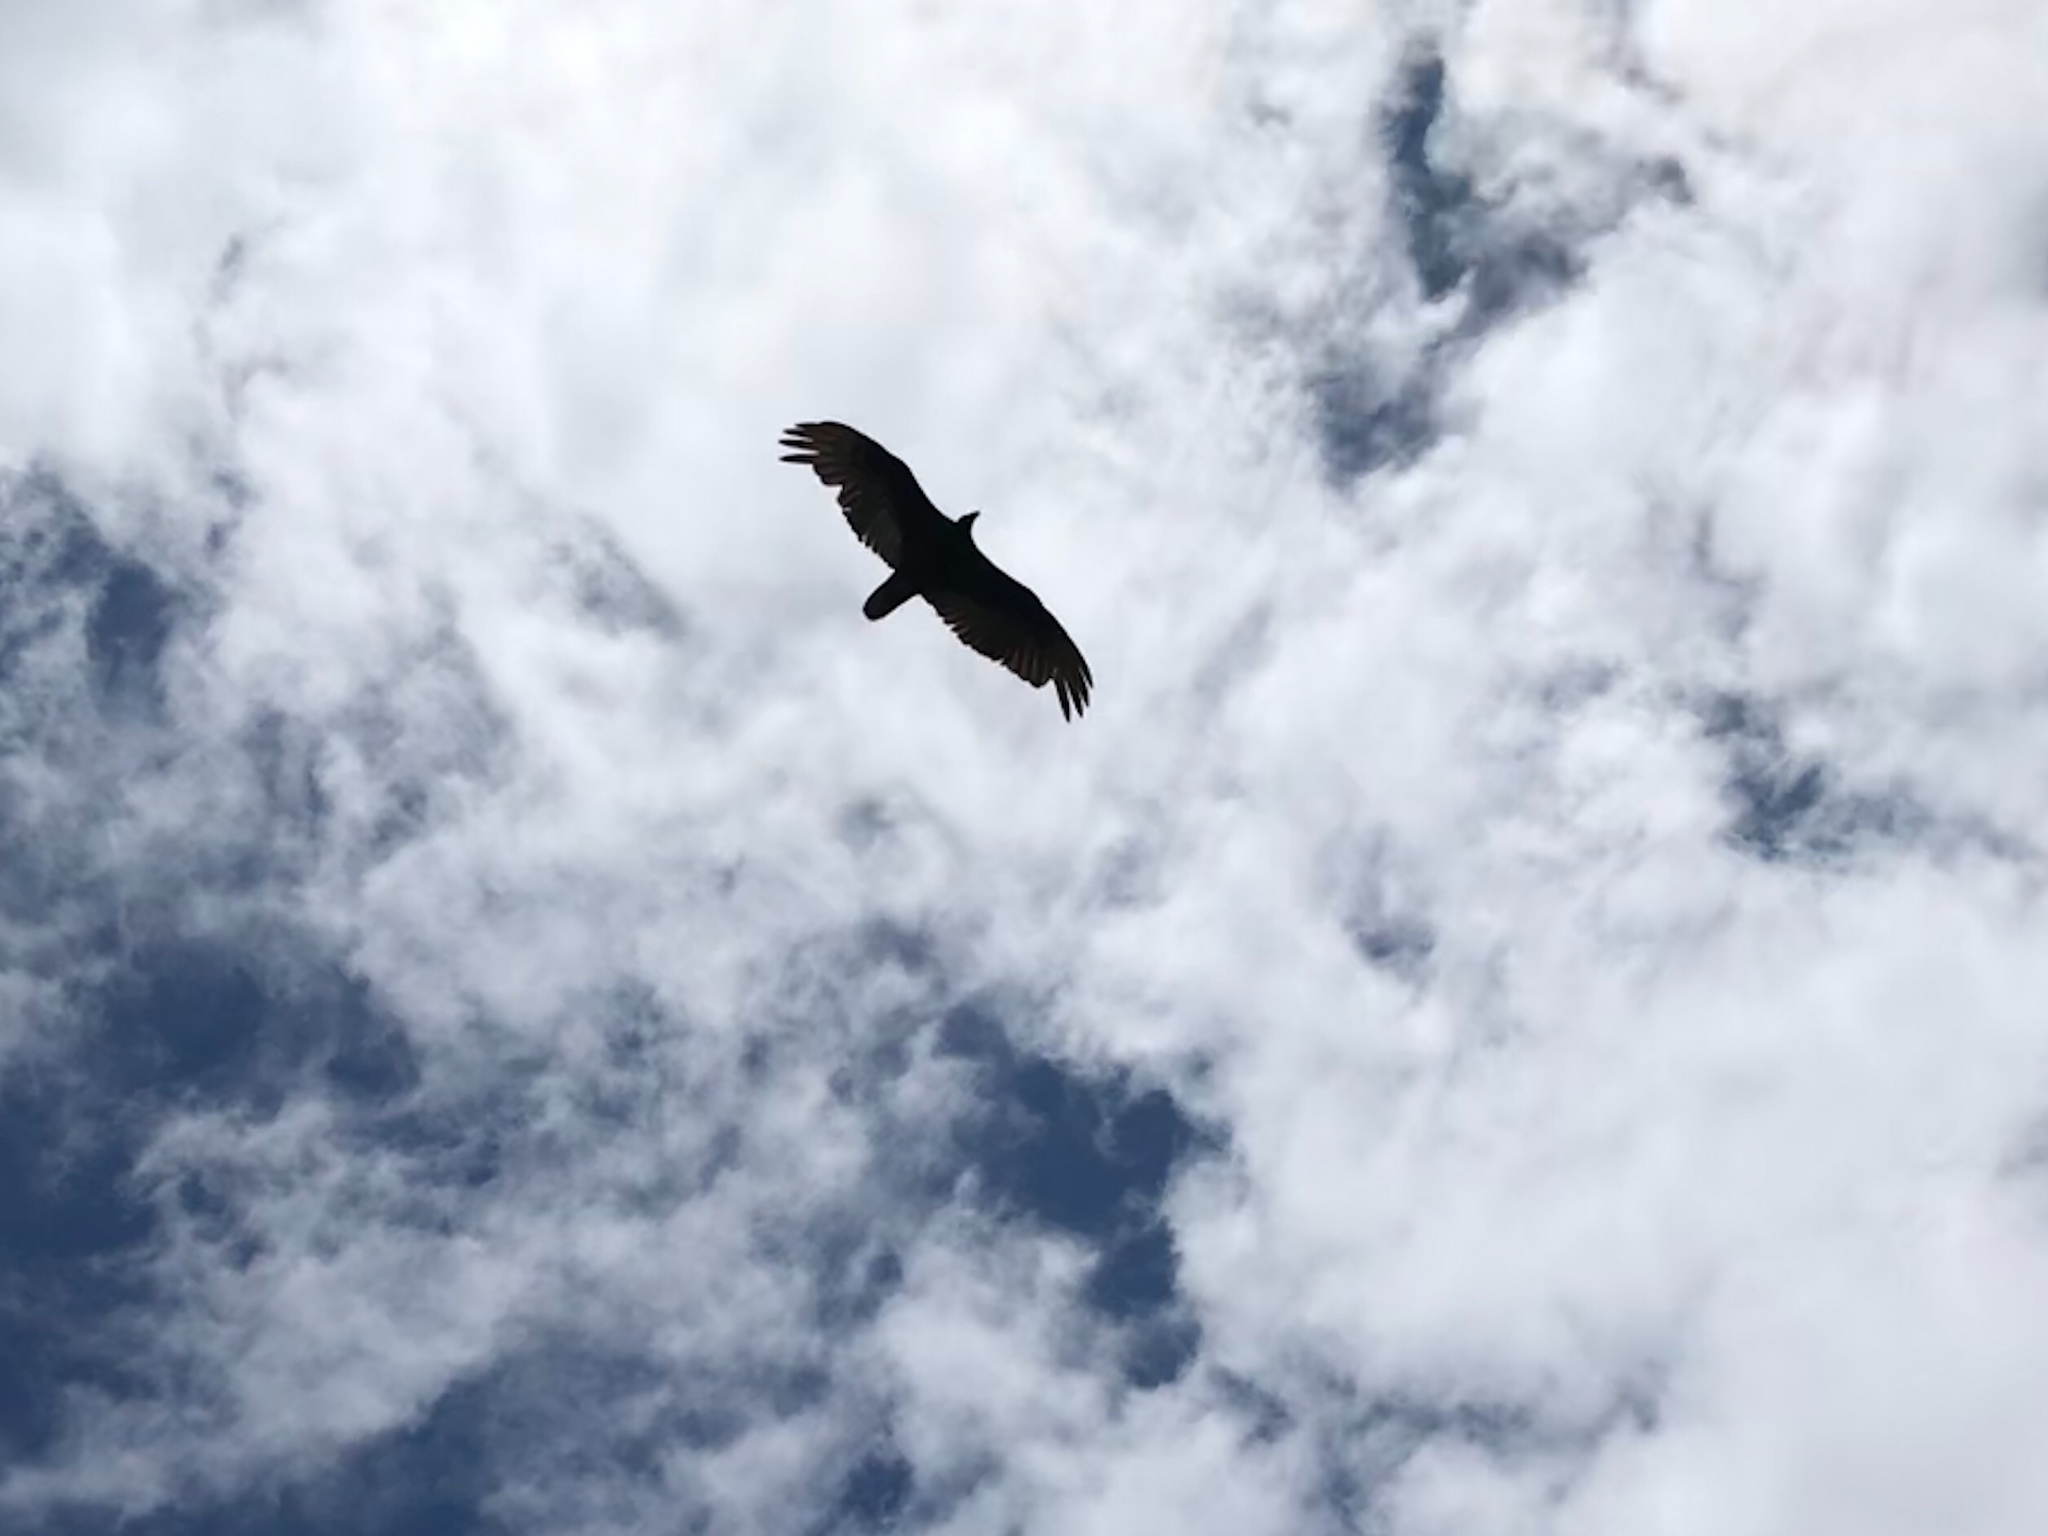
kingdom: Animalia
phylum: Chordata
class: Aves
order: Accipitriformes
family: Cathartidae
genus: Cathartes
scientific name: Cathartes aura
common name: Turkey vulture
